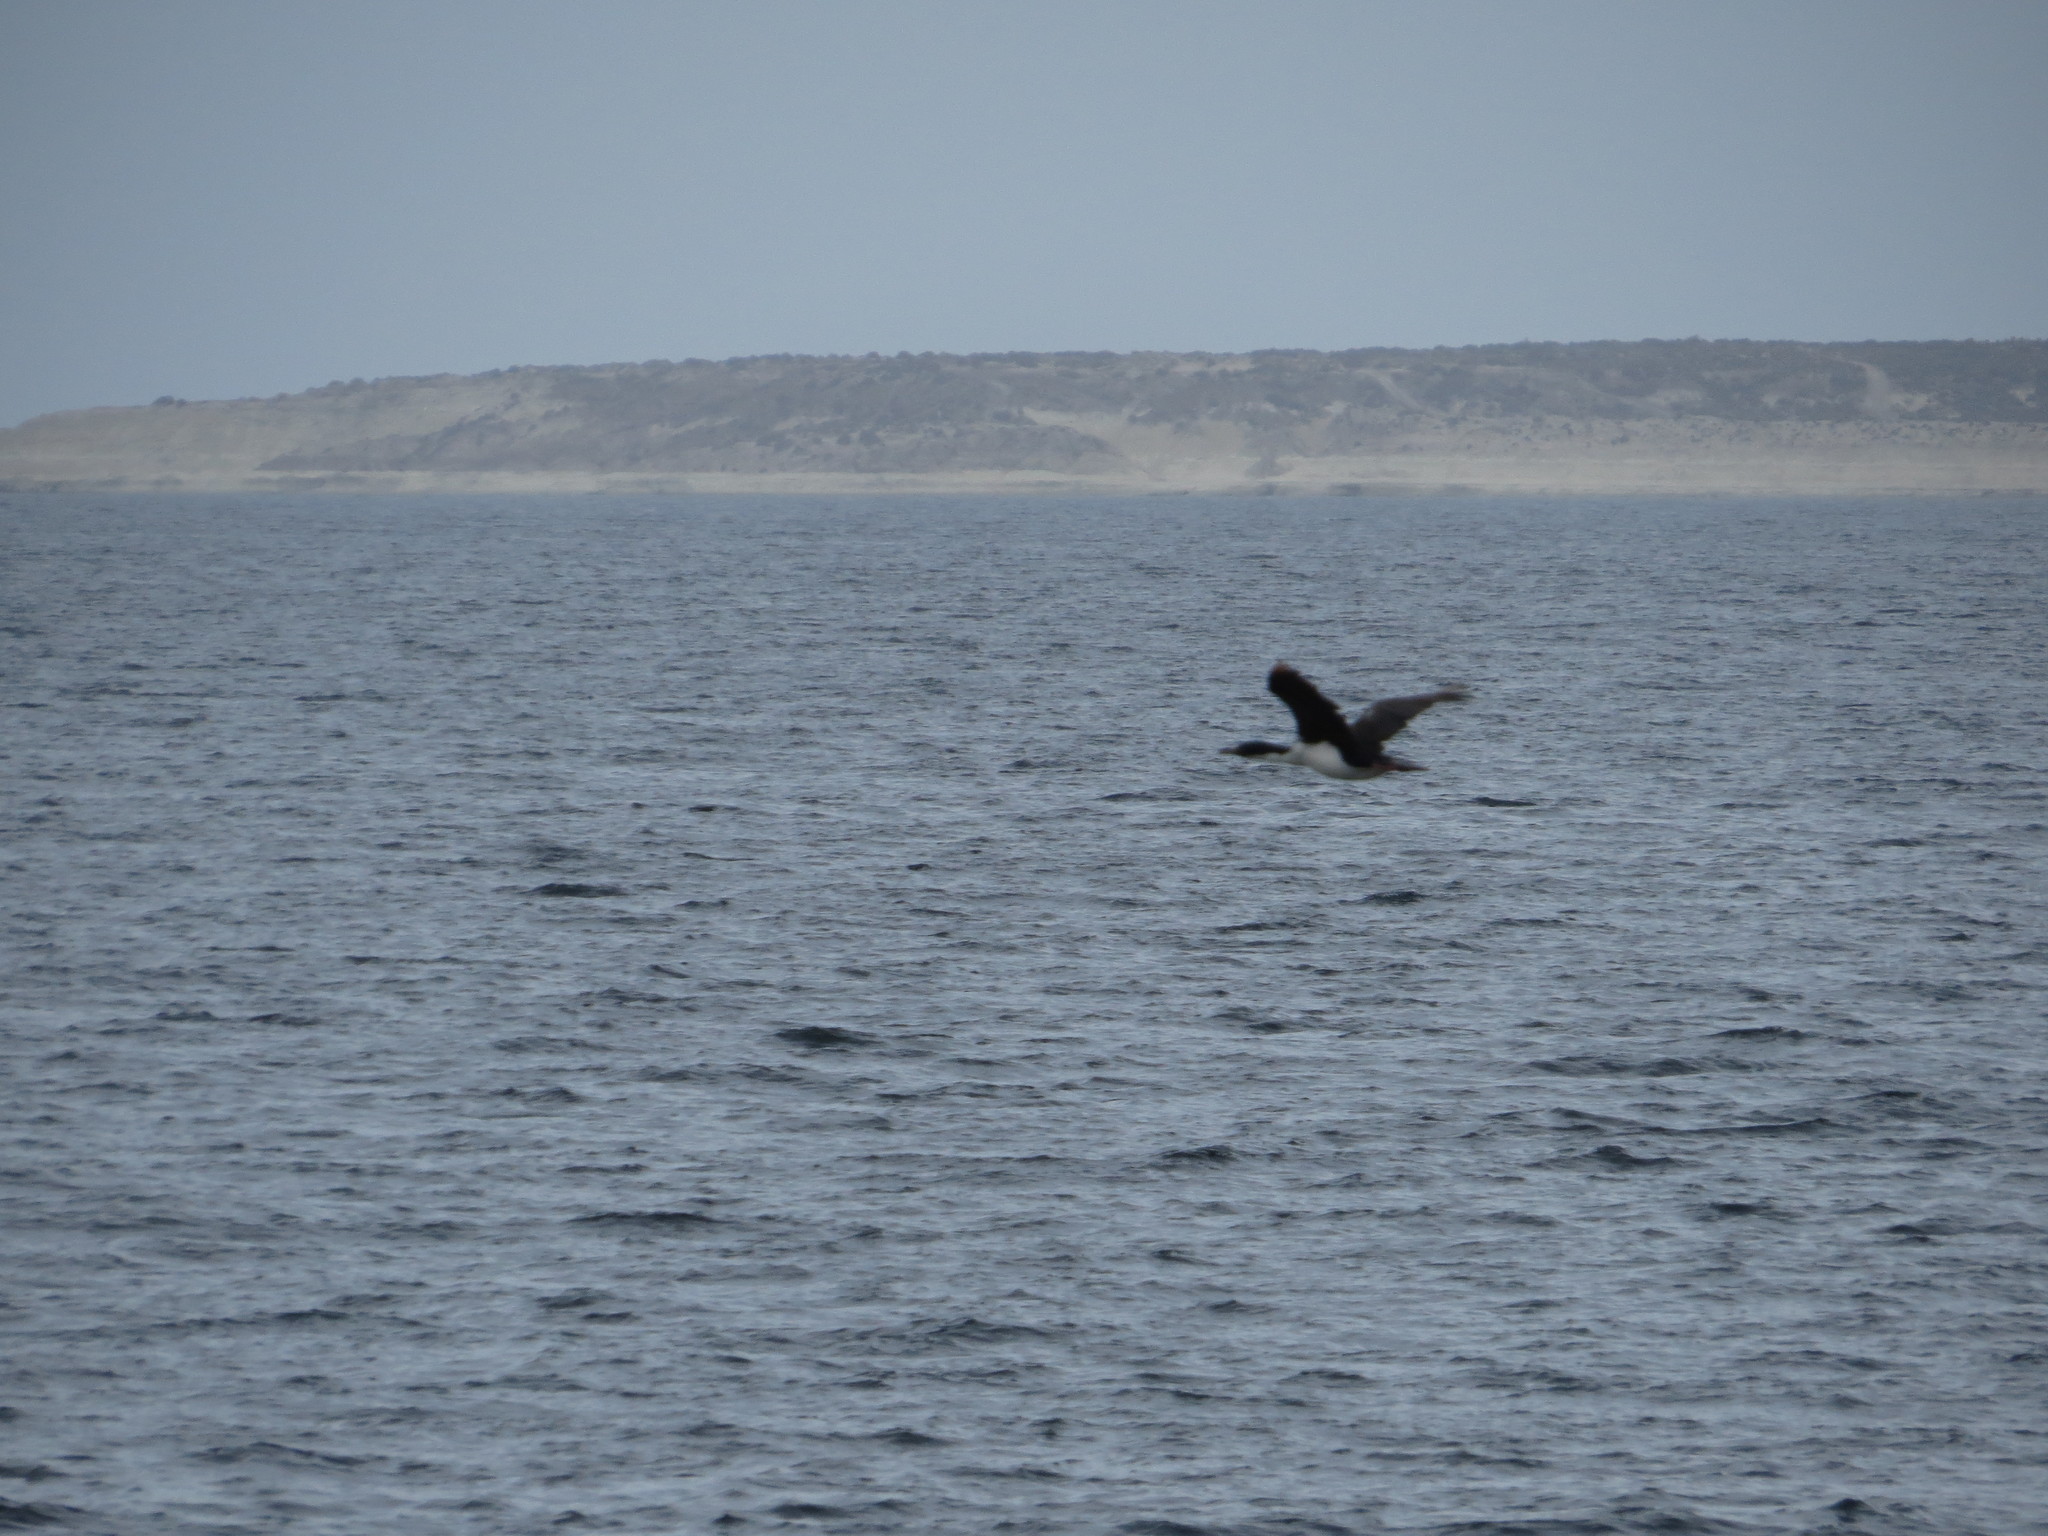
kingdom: Animalia
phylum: Chordata
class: Aves
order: Suliformes
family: Phalacrocoracidae
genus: Leucocarbo
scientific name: Leucocarbo atriceps
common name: Imperial shag
